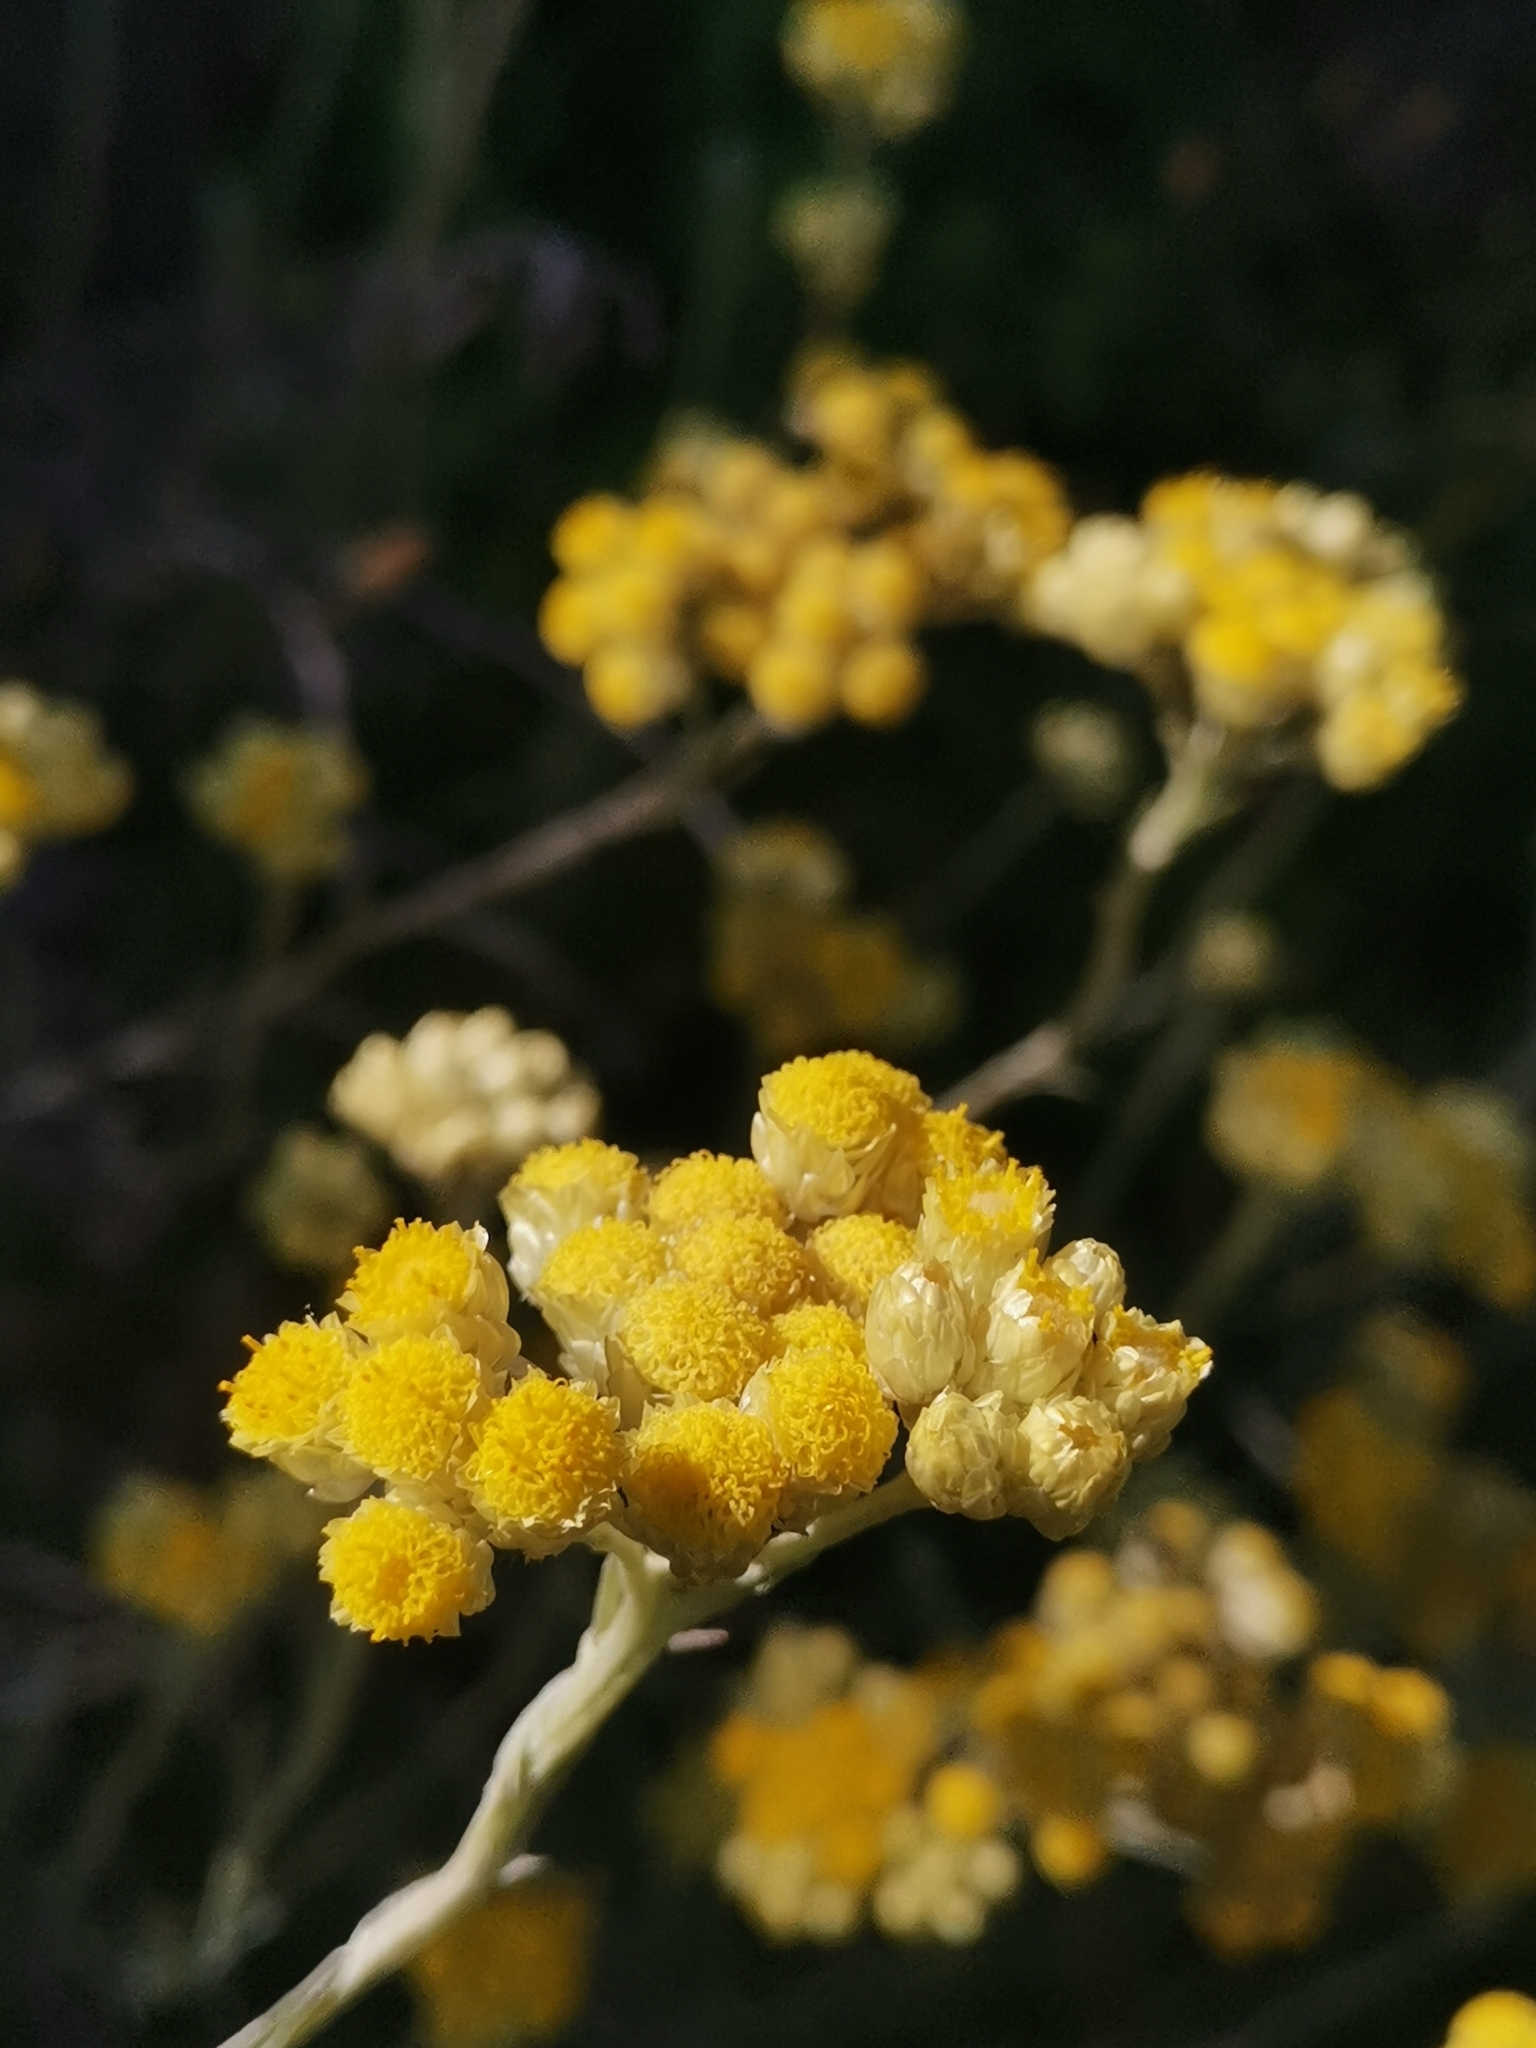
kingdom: Plantae
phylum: Tracheophyta
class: Magnoliopsida
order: Asterales
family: Asteraceae
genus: Helichrysum
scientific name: Helichrysum stoechas
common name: Goldilocks
